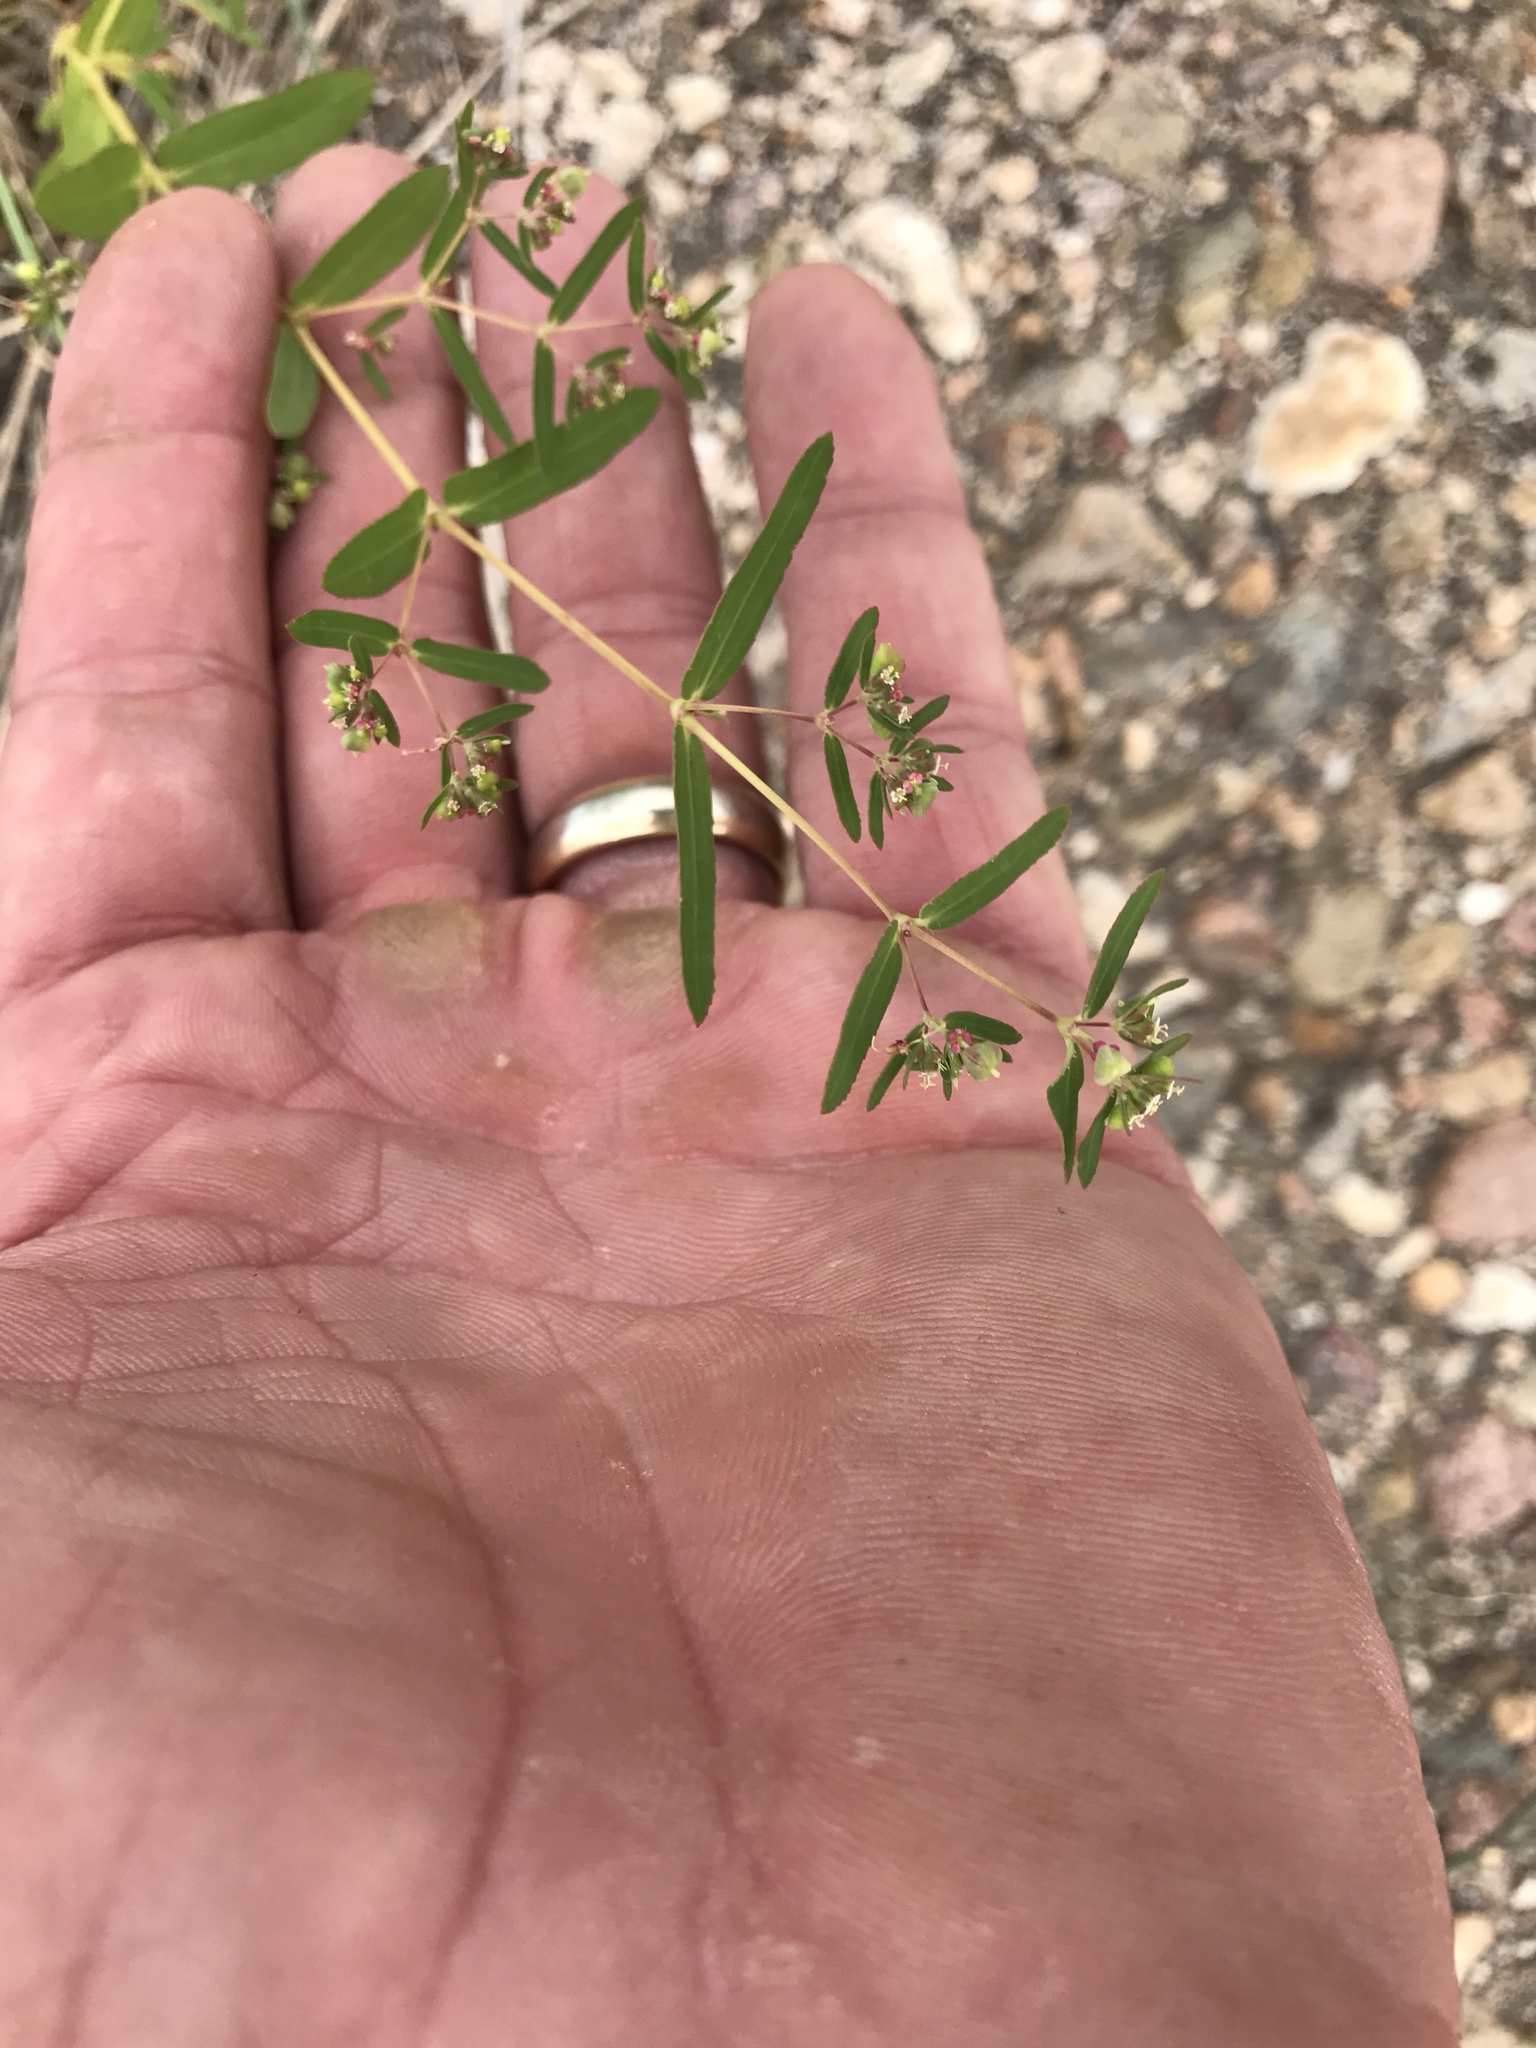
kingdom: Plantae
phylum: Tracheophyta
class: Magnoliopsida
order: Malpighiales
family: Euphorbiaceae
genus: Euphorbia
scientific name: Euphorbia hyssopifolia
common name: Hyssopleaf sandmat
